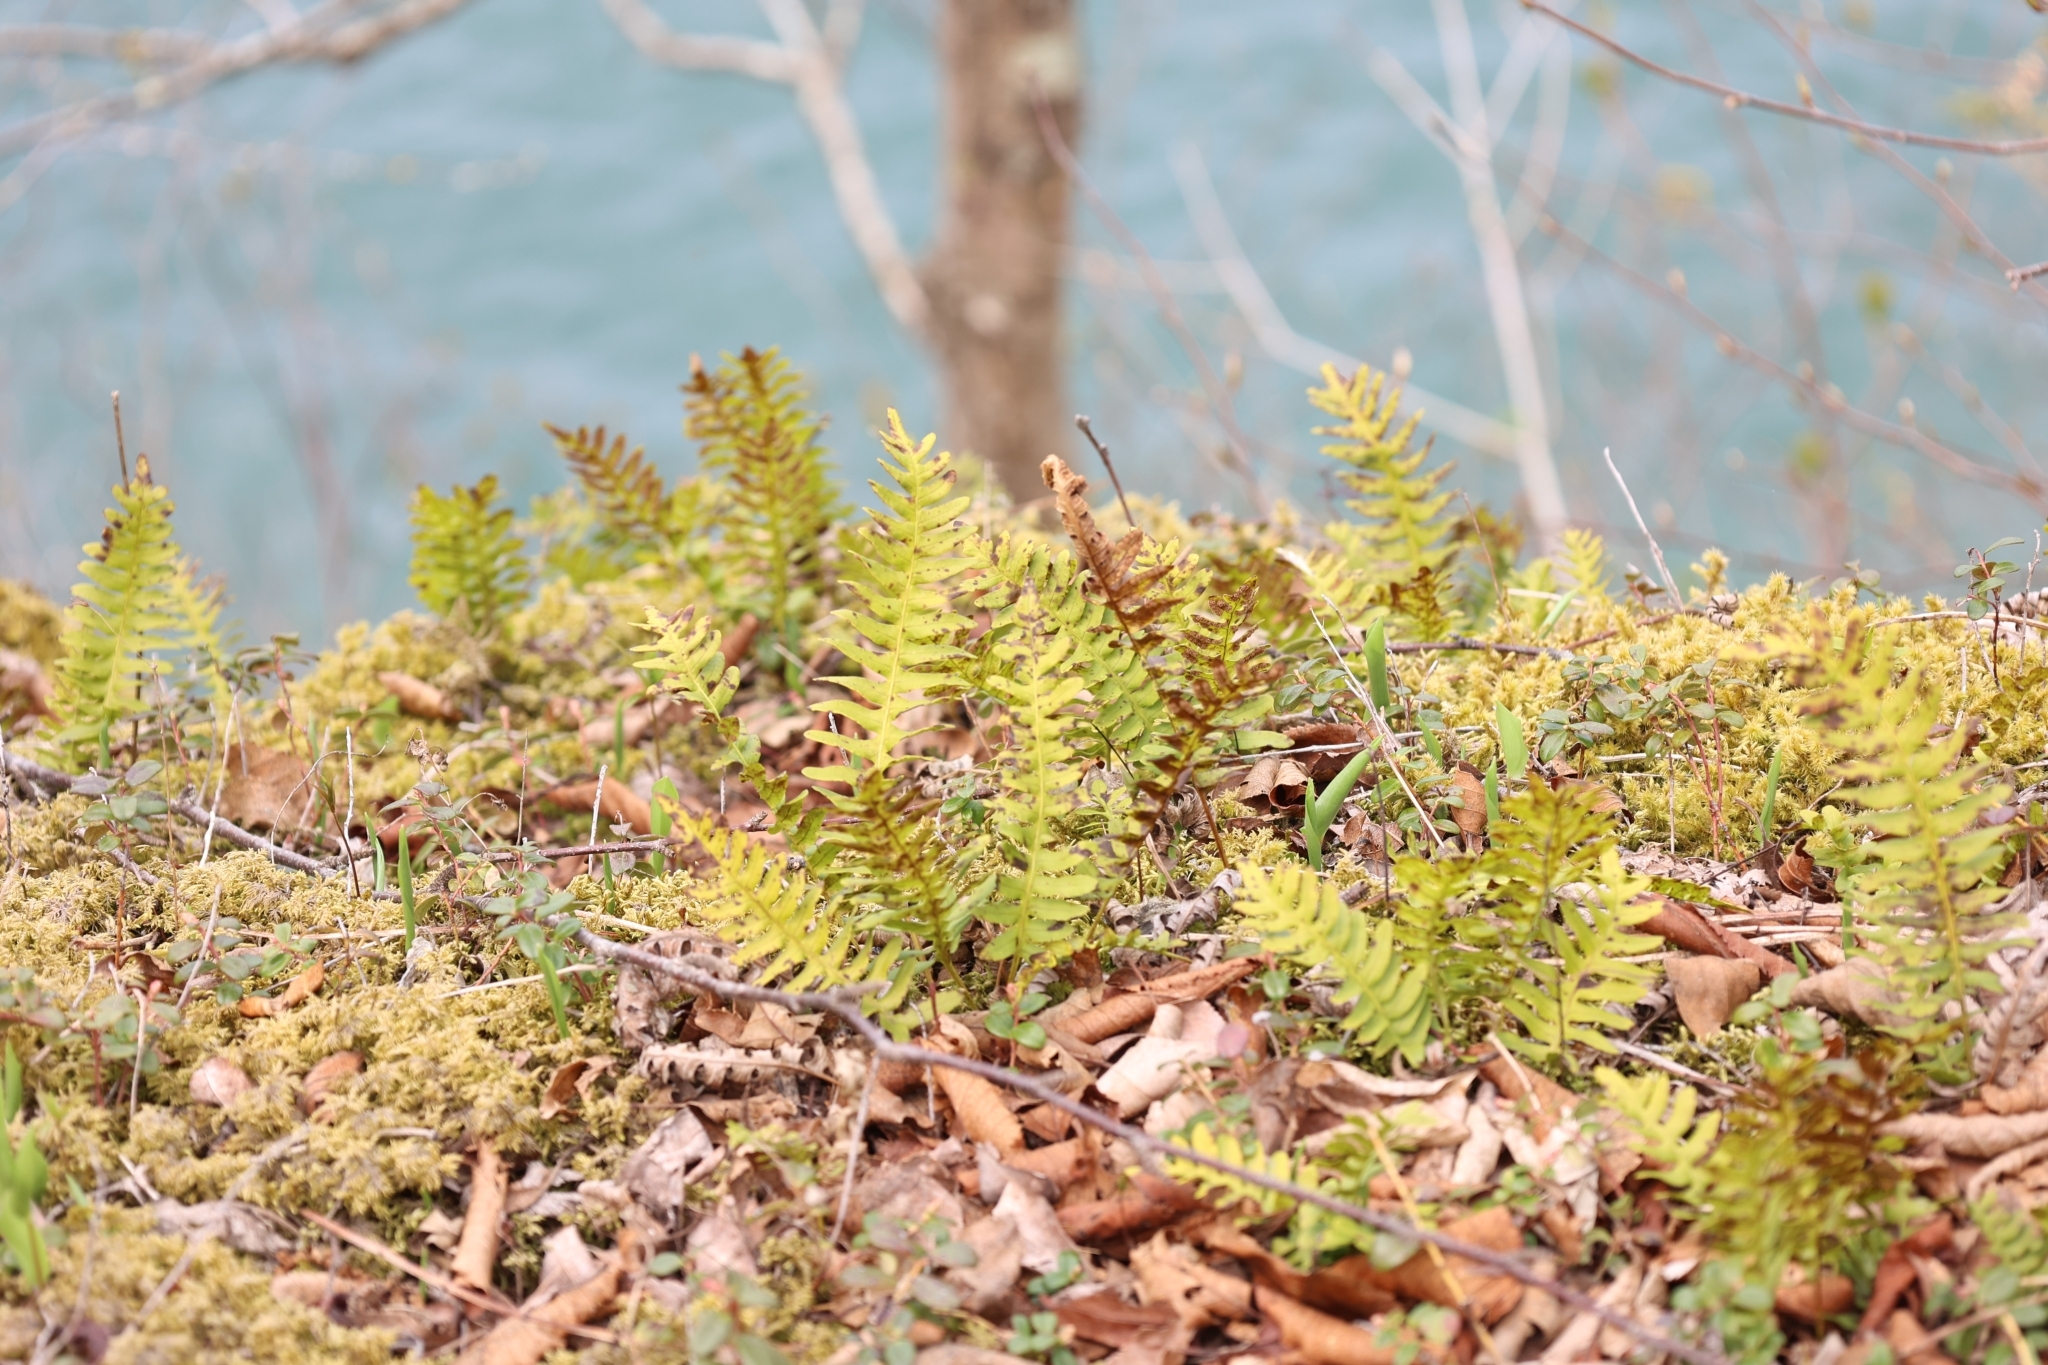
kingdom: Plantae
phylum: Tracheophyta
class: Polypodiopsida
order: Polypodiales
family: Polypodiaceae
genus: Polypodium
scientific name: Polypodium virginianum
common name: American wall fern
